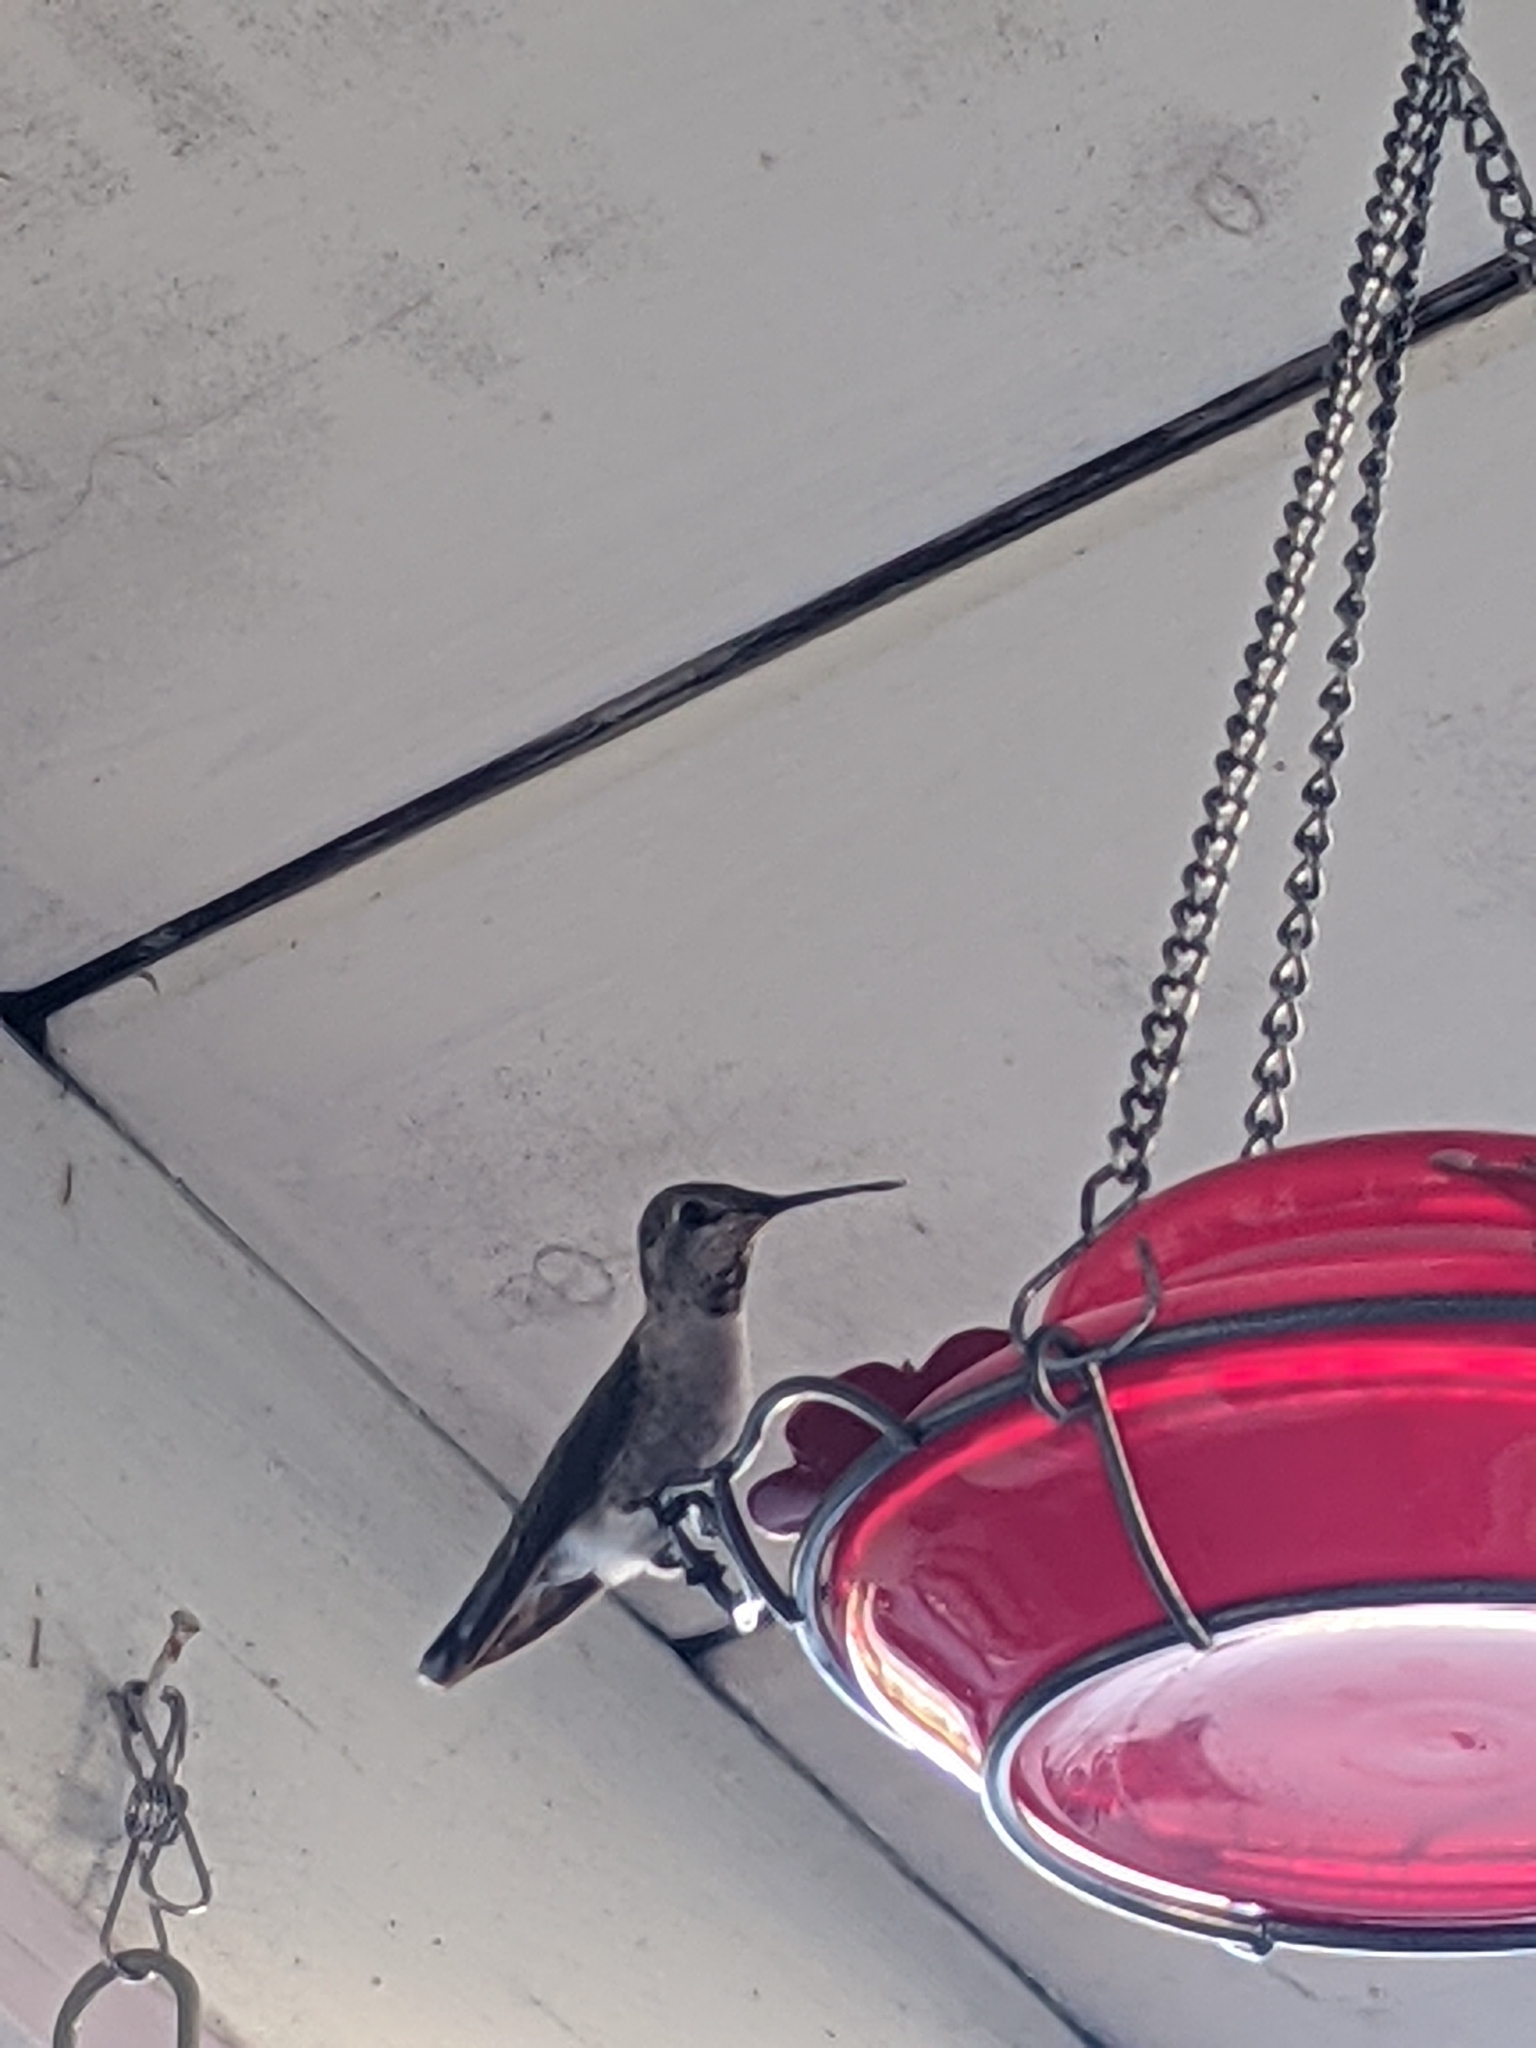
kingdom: Animalia
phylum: Chordata
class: Aves
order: Apodiformes
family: Trochilidae
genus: Calypte
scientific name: Calypte anna
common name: Anna's hummingbird
